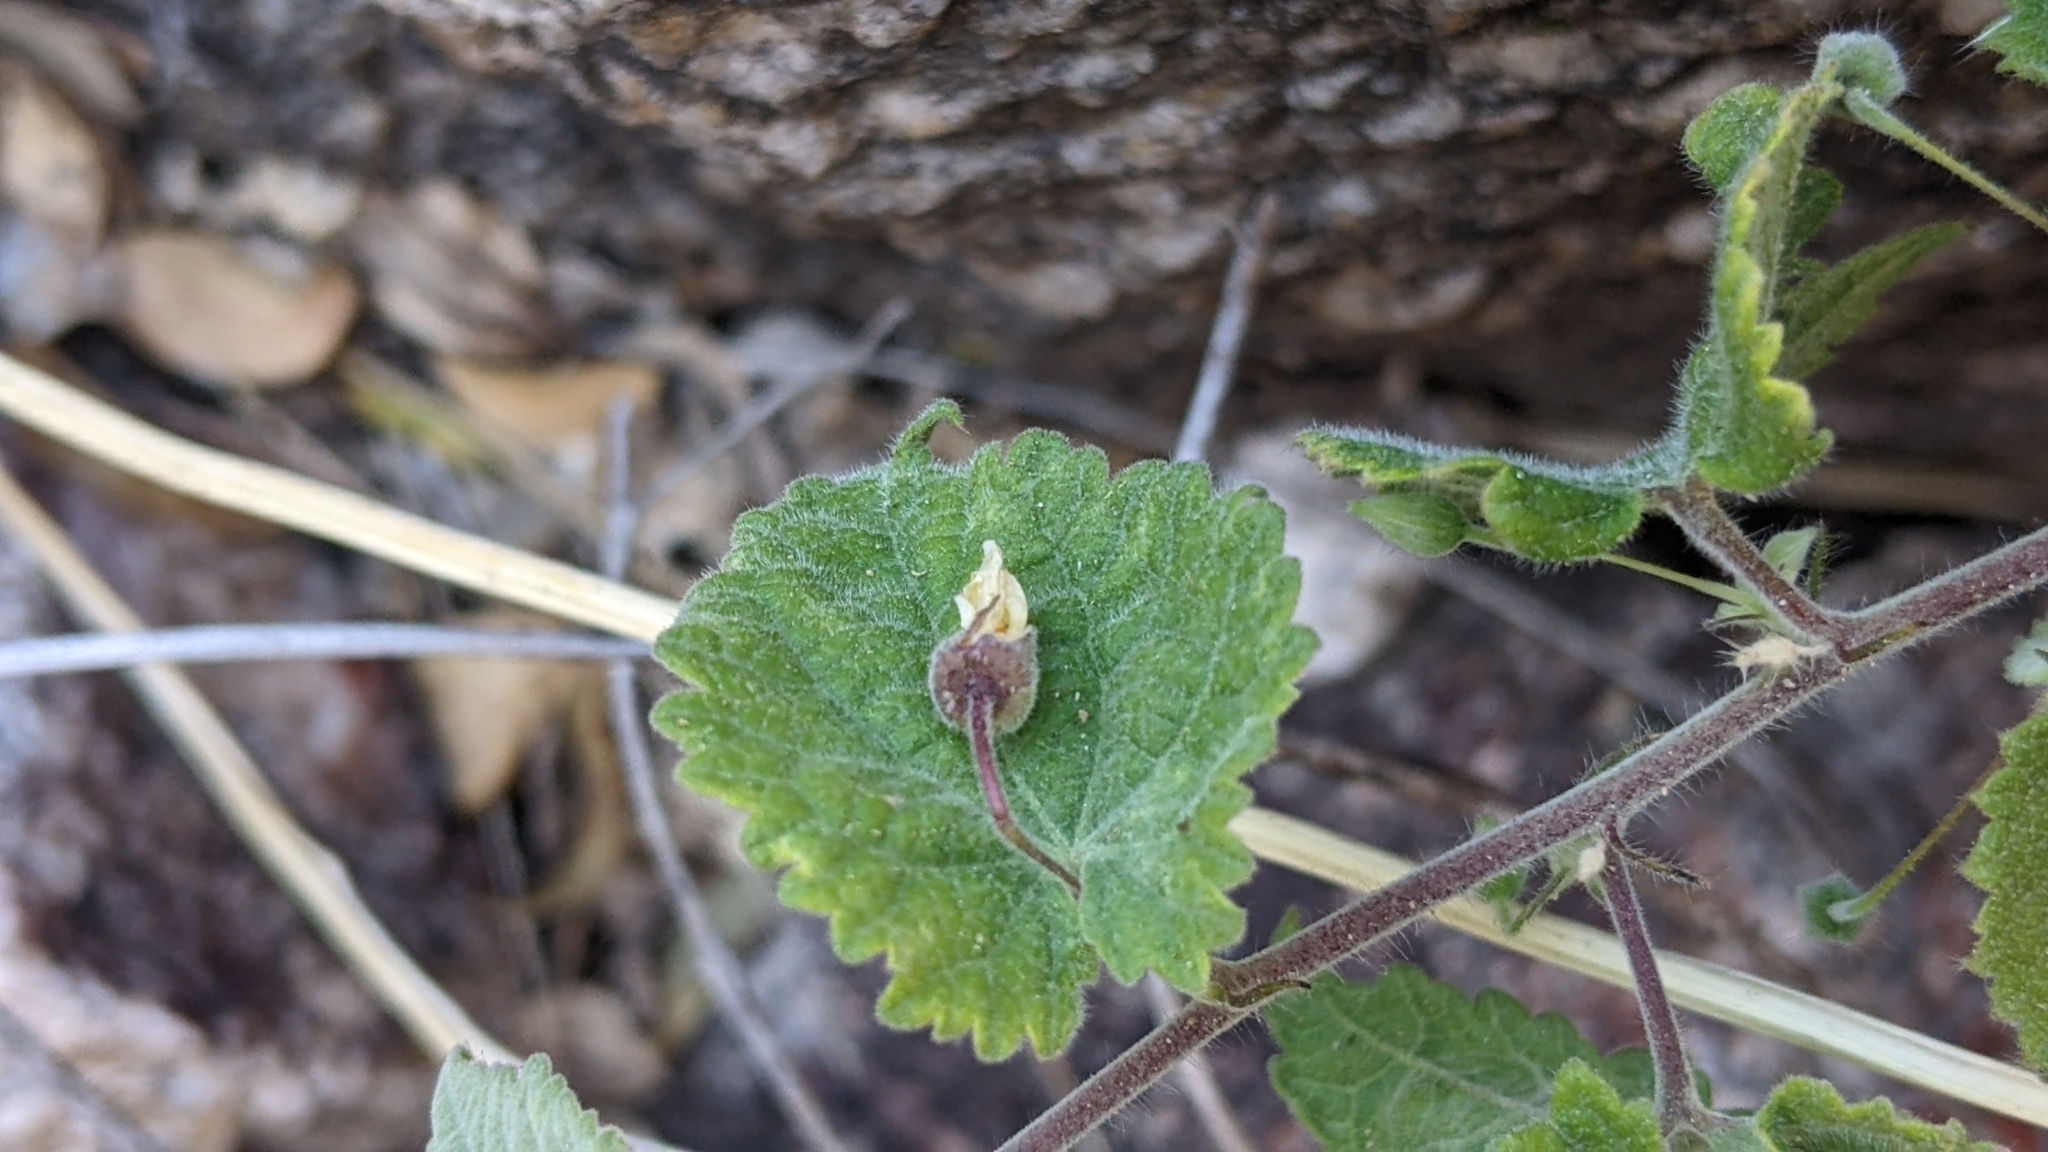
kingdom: Plantae
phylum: Tracheophyta
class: Magnoliopsida
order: Malvales
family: Malvaceae
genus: Herissantia
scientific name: Herissantia crispa
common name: Bladdermallow
